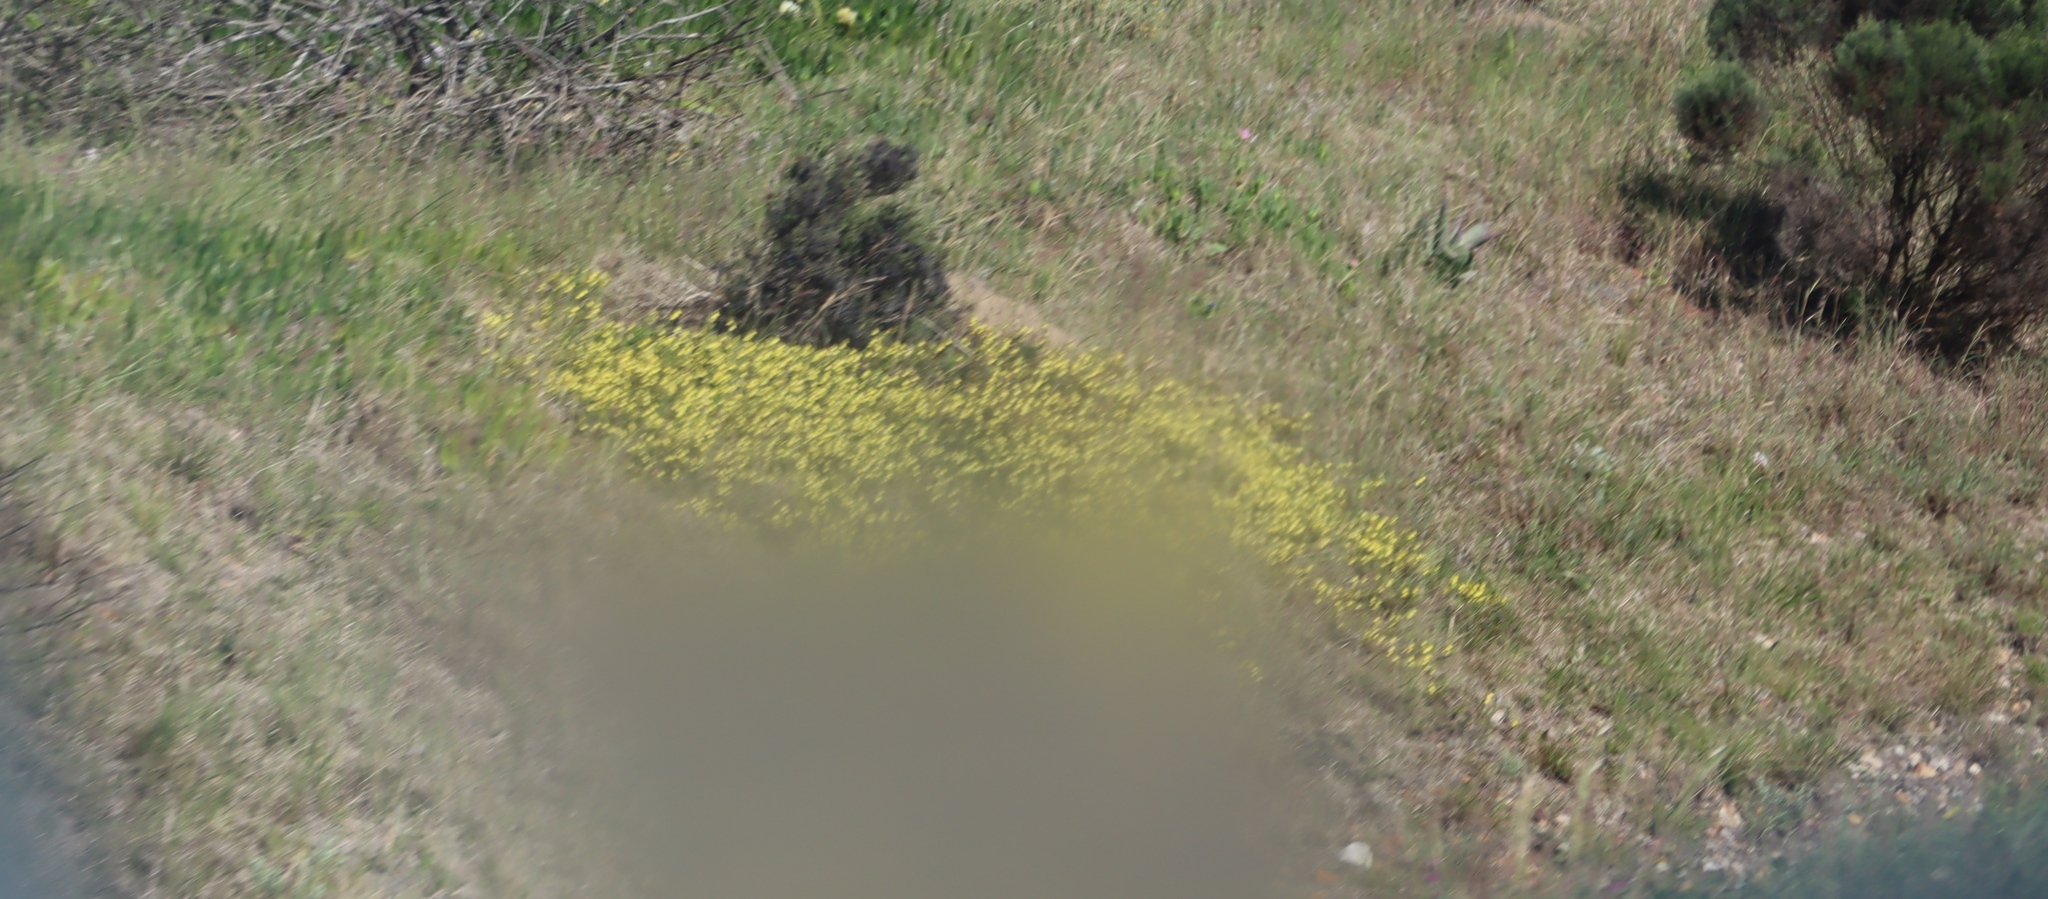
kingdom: Plantae
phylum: Tracheophyta
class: Magnoliopsida
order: Oxalidales
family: Oxalidaceae
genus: Oxalis
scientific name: Oxalis pes-caprae
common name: Bermuda-buttercup
